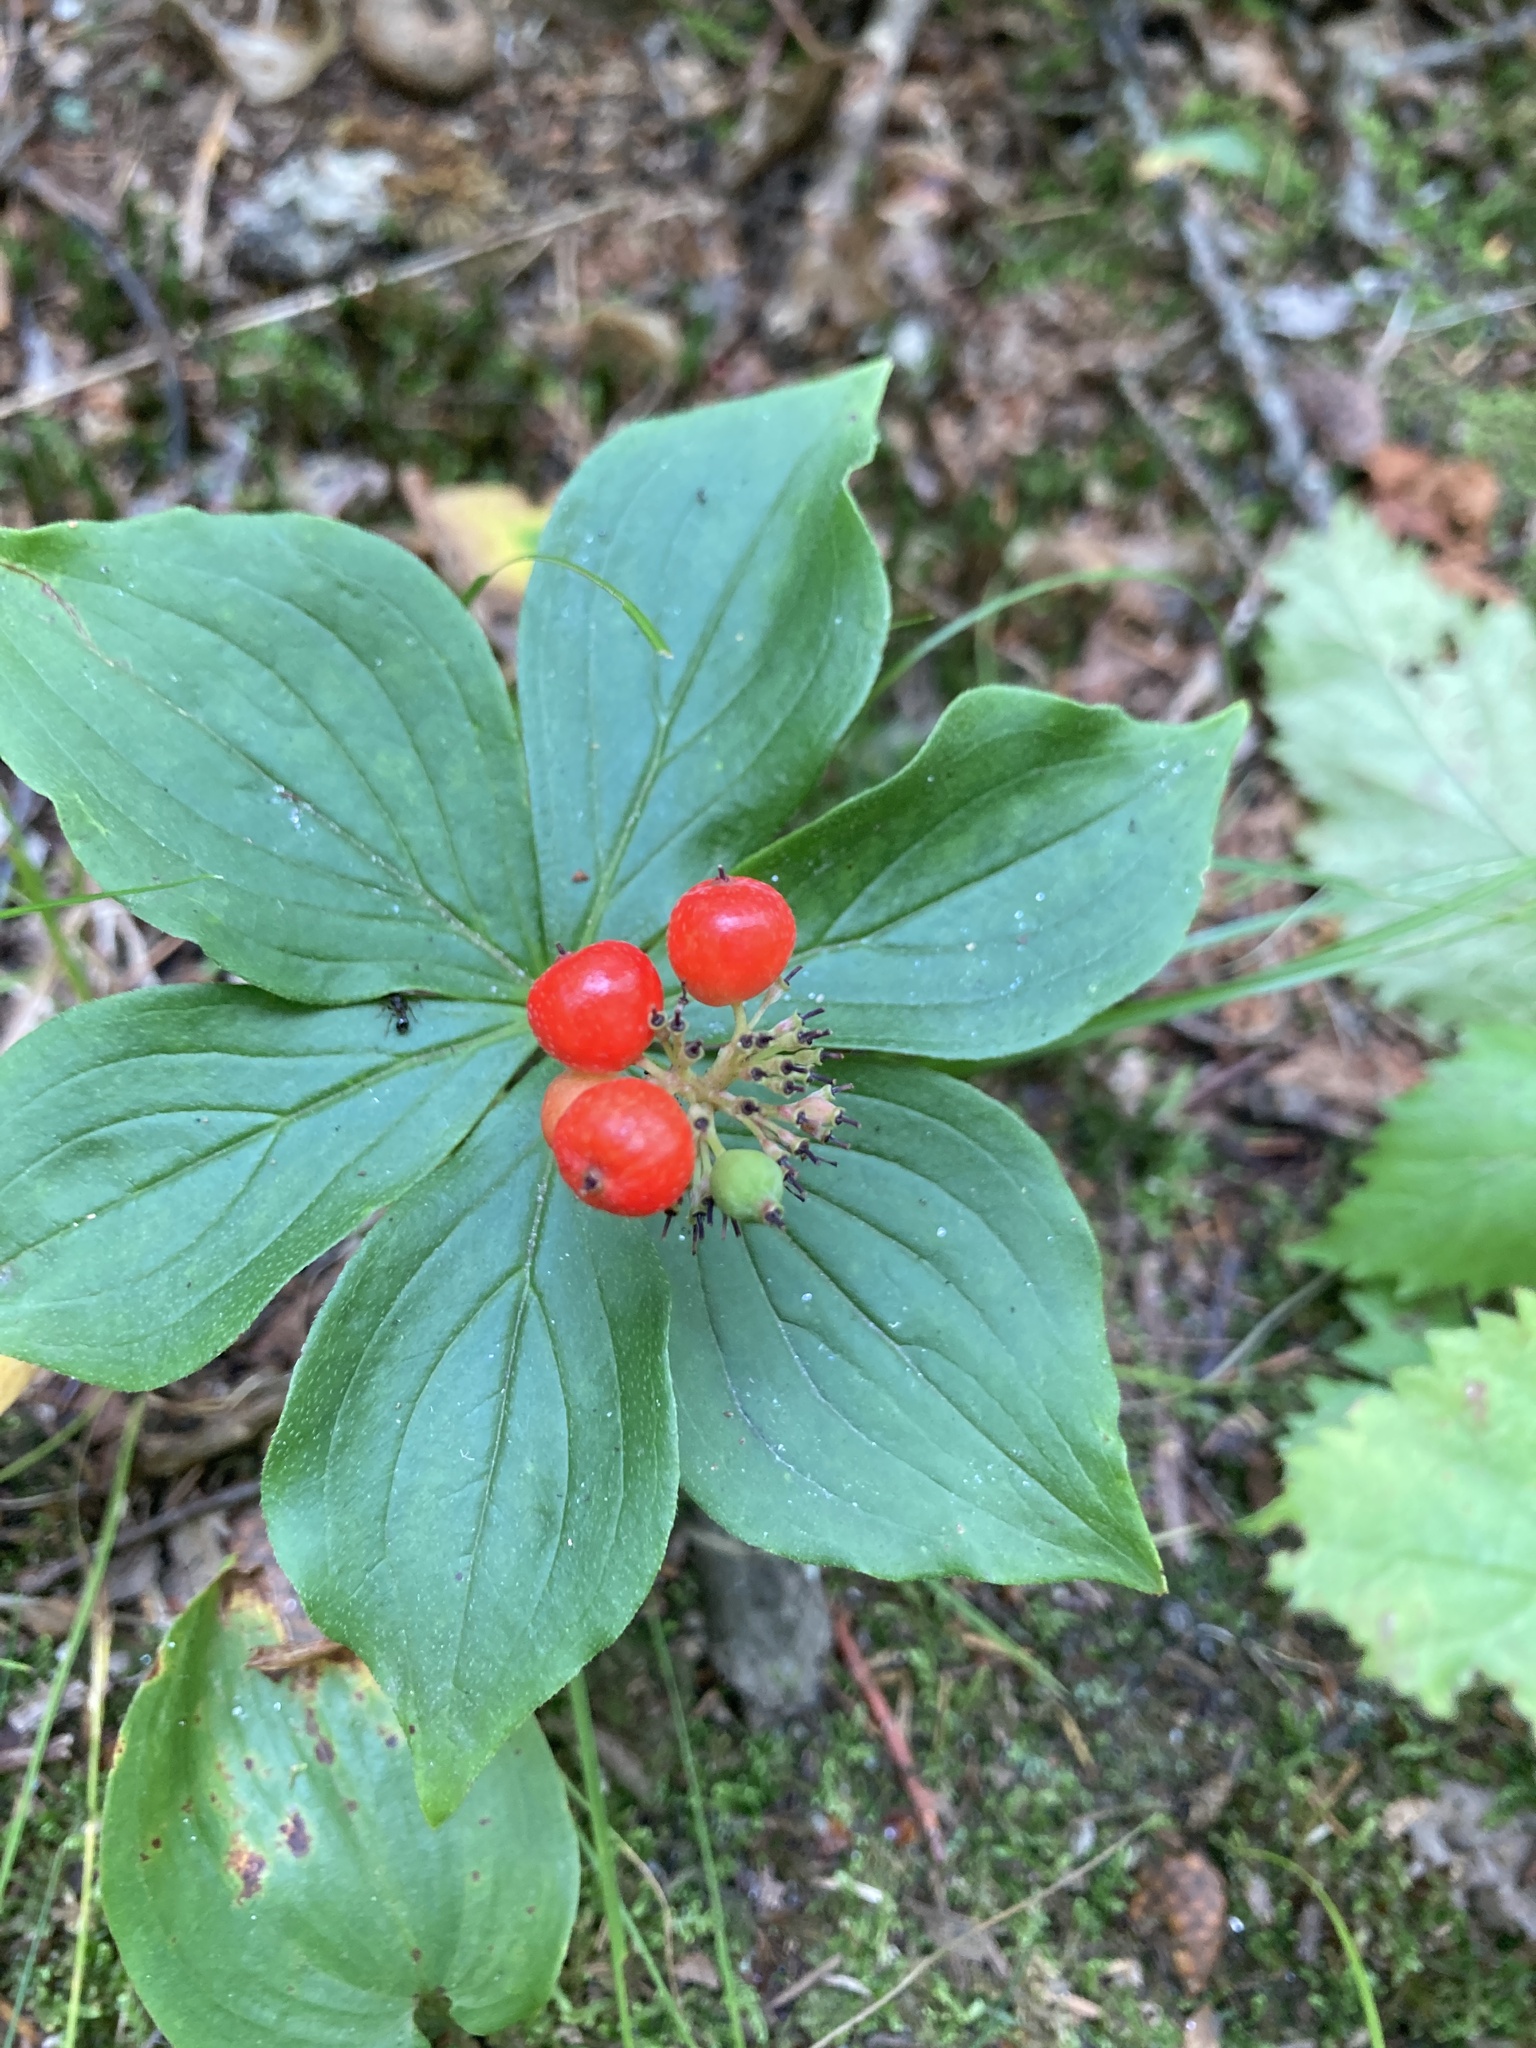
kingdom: Plantae
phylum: Tracheophyta
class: Magnoliopsida
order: Cornales
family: Cornaceae
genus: Cornus
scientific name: Cornus canadensis
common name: Creeping dogwood
